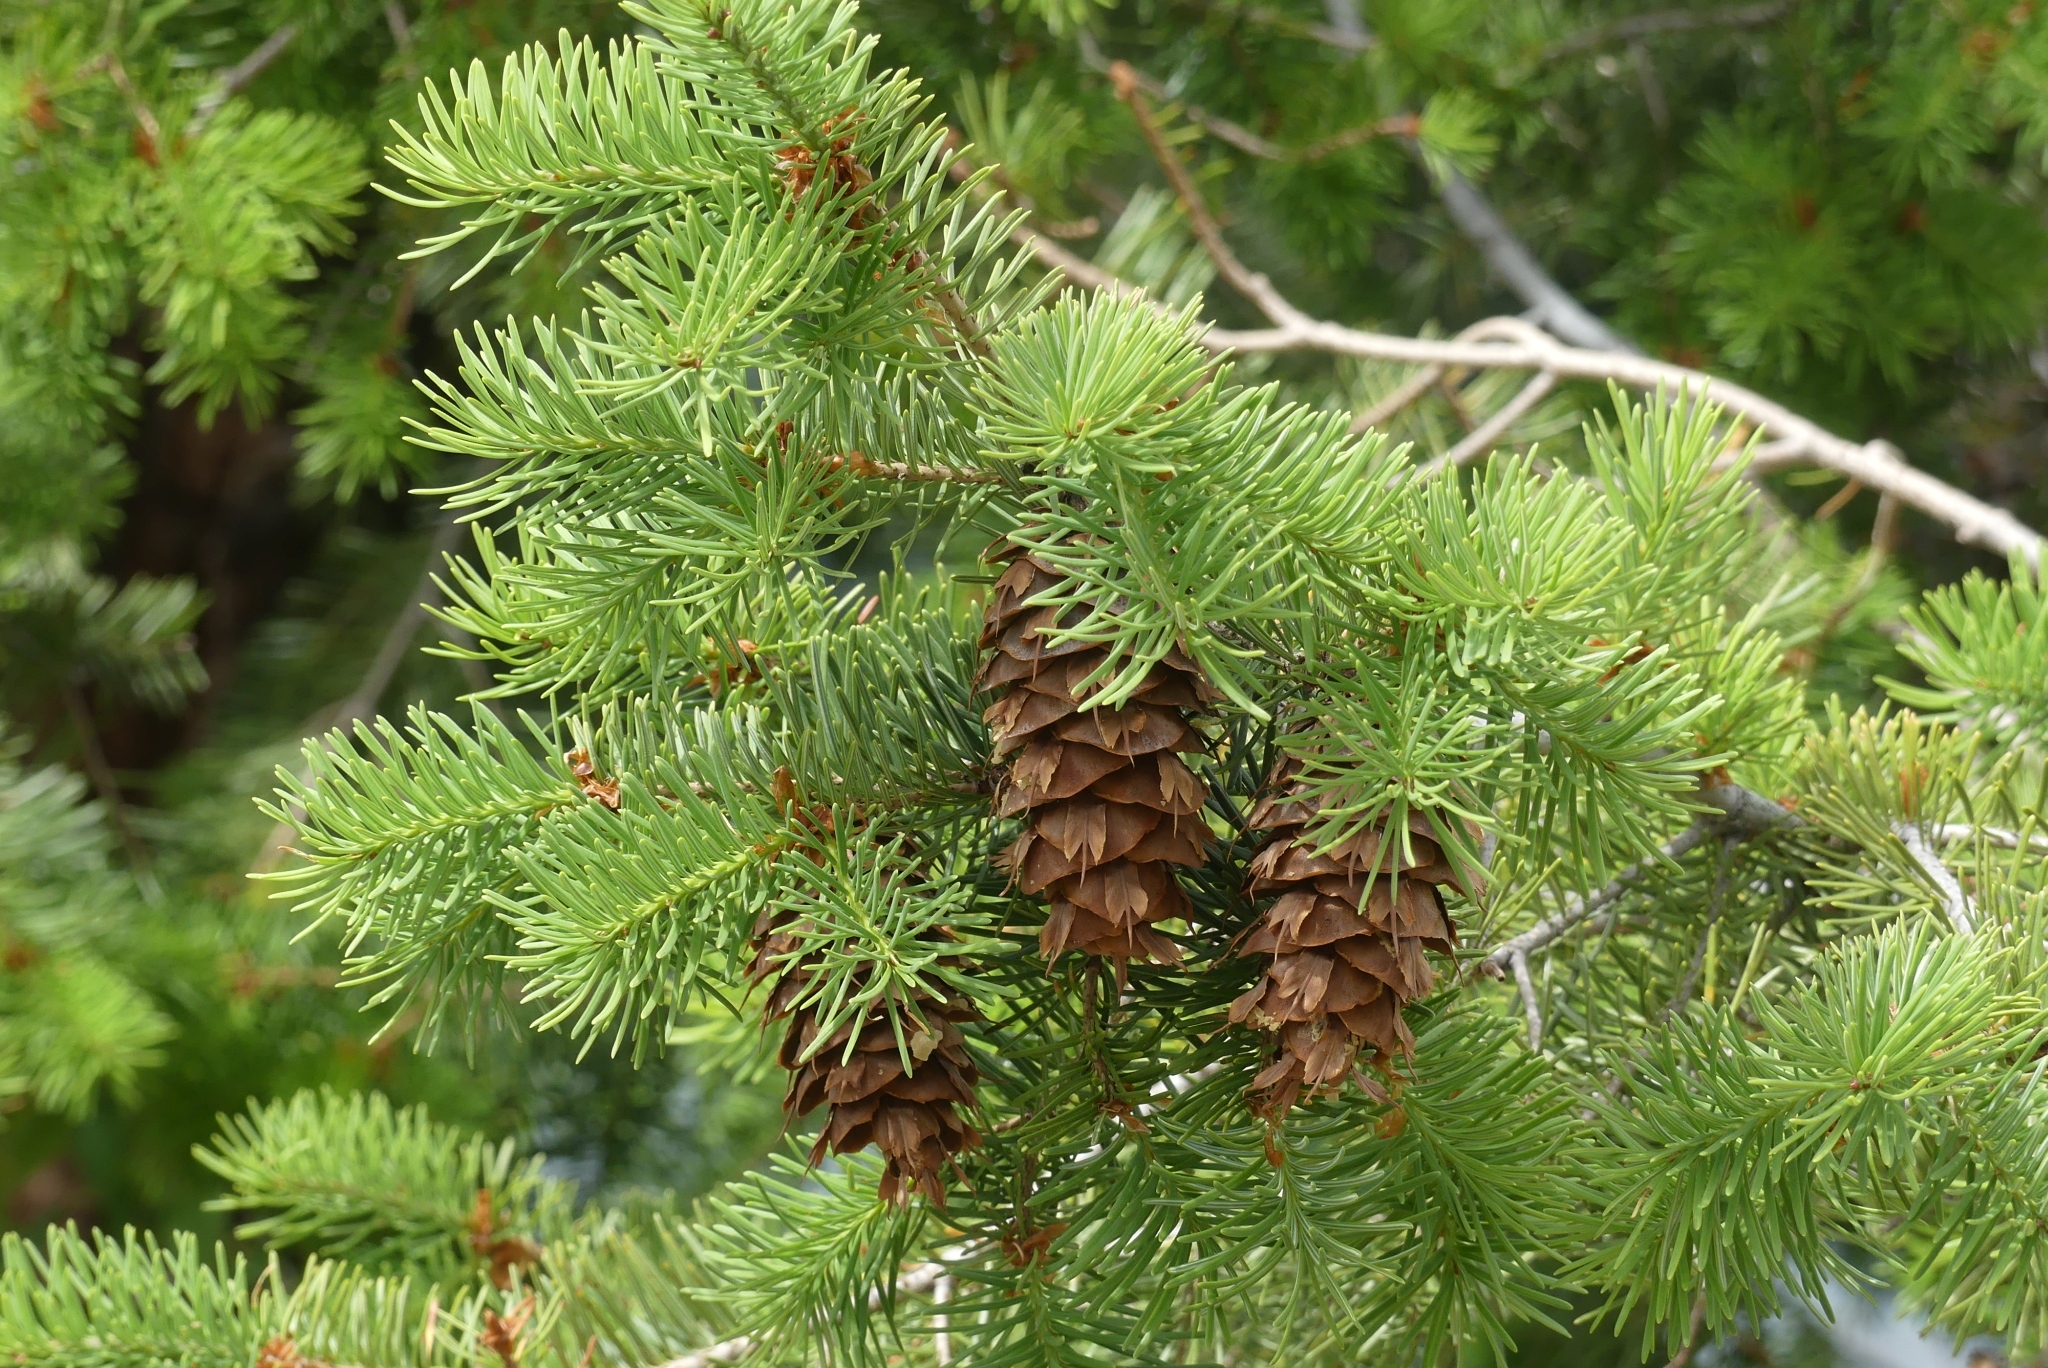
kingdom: Plantae
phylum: Tracheophyta
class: Pinopsida
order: Pinales
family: Pinaceae
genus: Pseudotsuga
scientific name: Pseudotsuga menziesii
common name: Douglas fir
